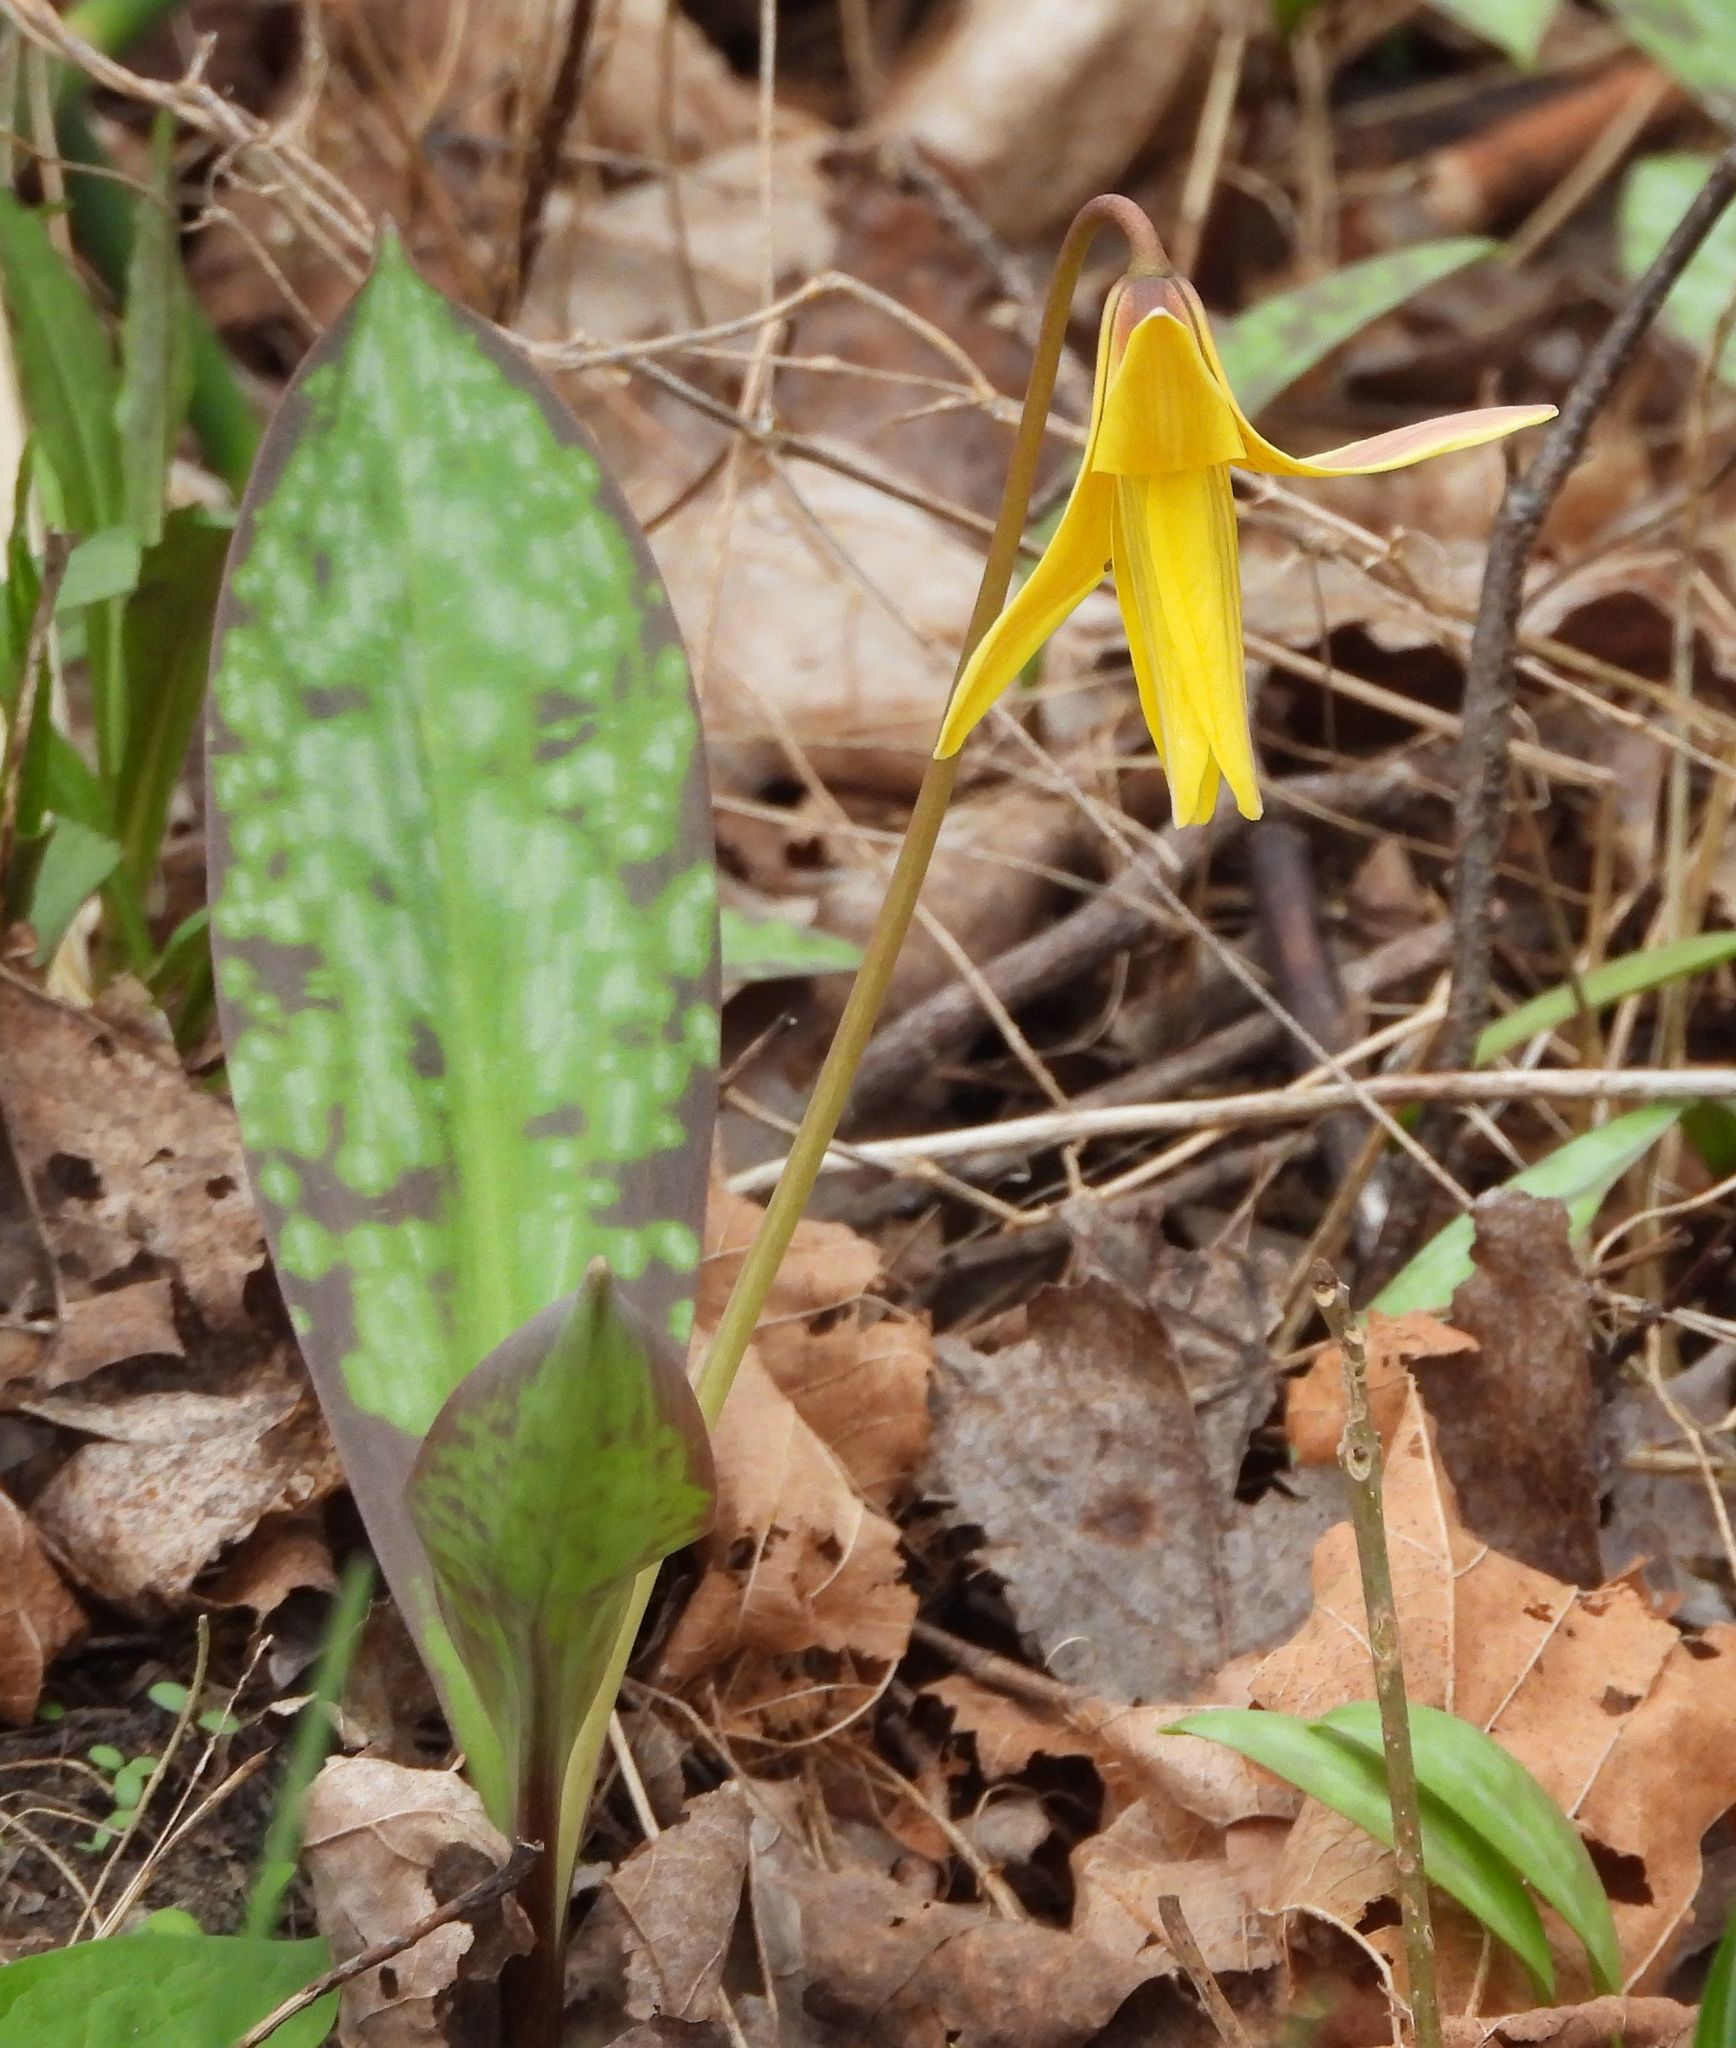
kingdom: Plantae
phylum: Tracheophyta
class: Liliopsida
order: Liliales
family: Liliaceae
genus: Erythronium
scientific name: Erythronium americanum
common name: Yellow adder's-tongue
